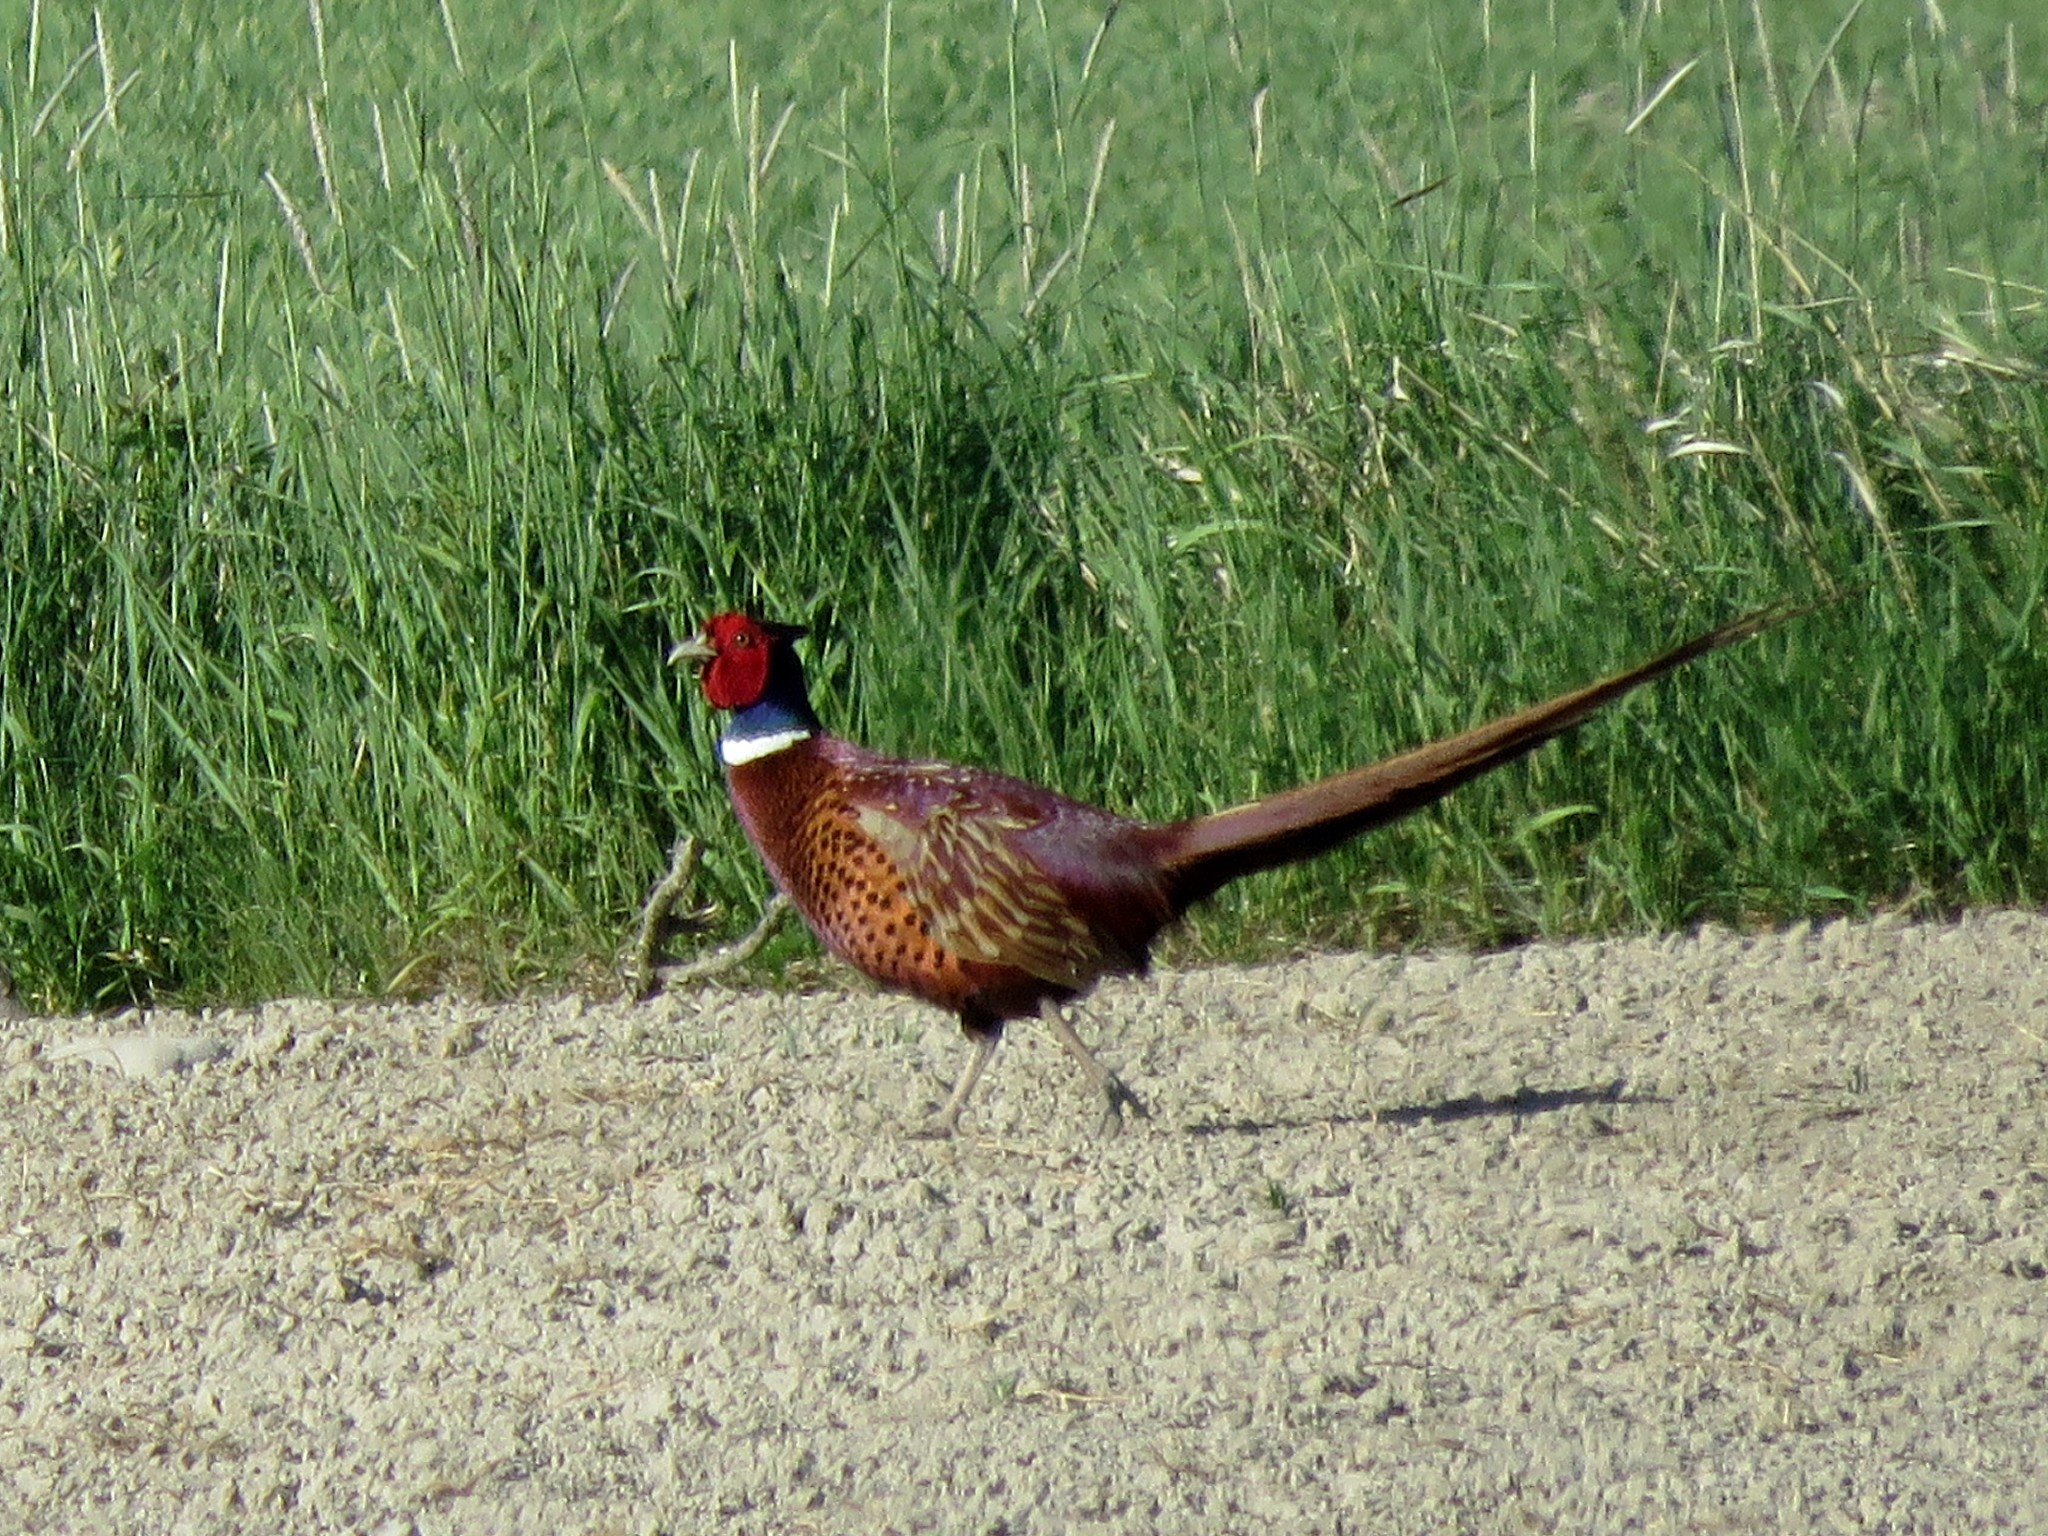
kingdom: Animalia
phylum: Chordata
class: Aves
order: Galliformes
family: Phasianidae
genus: Phasianus
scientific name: Phasianus colchicus
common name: Common pheasant
